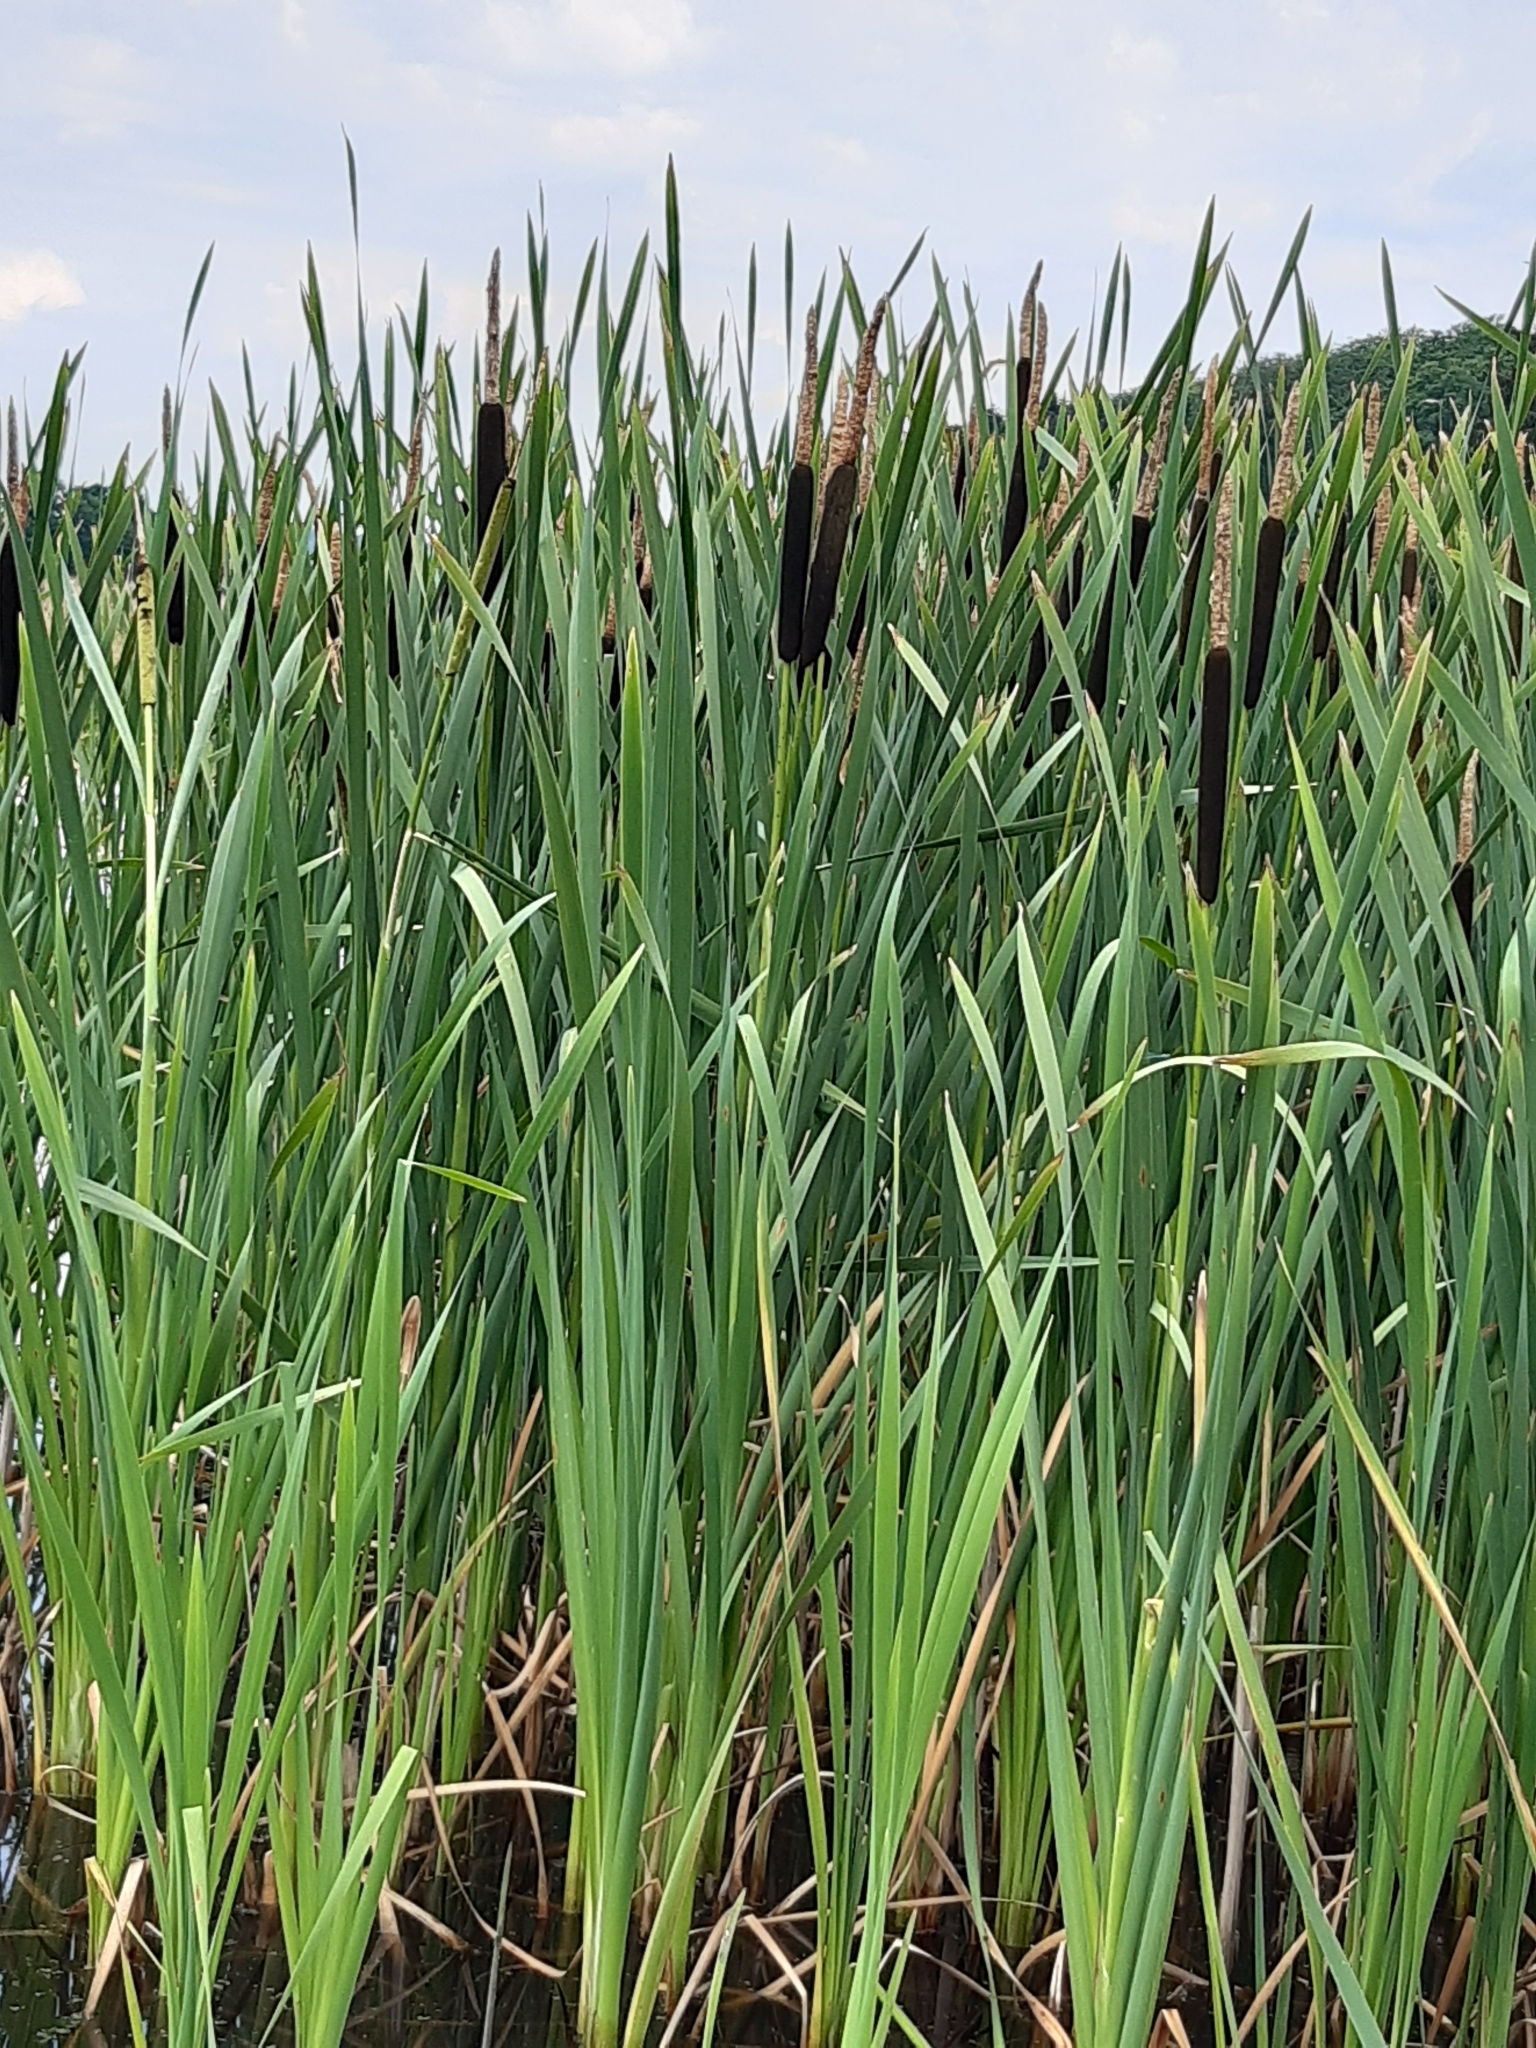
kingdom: Plantae
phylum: Tracheophyta
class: Liliopsida
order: Poales
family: Typhaceae
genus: Typha
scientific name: Typha latifolia
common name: Broadleaf cattail
